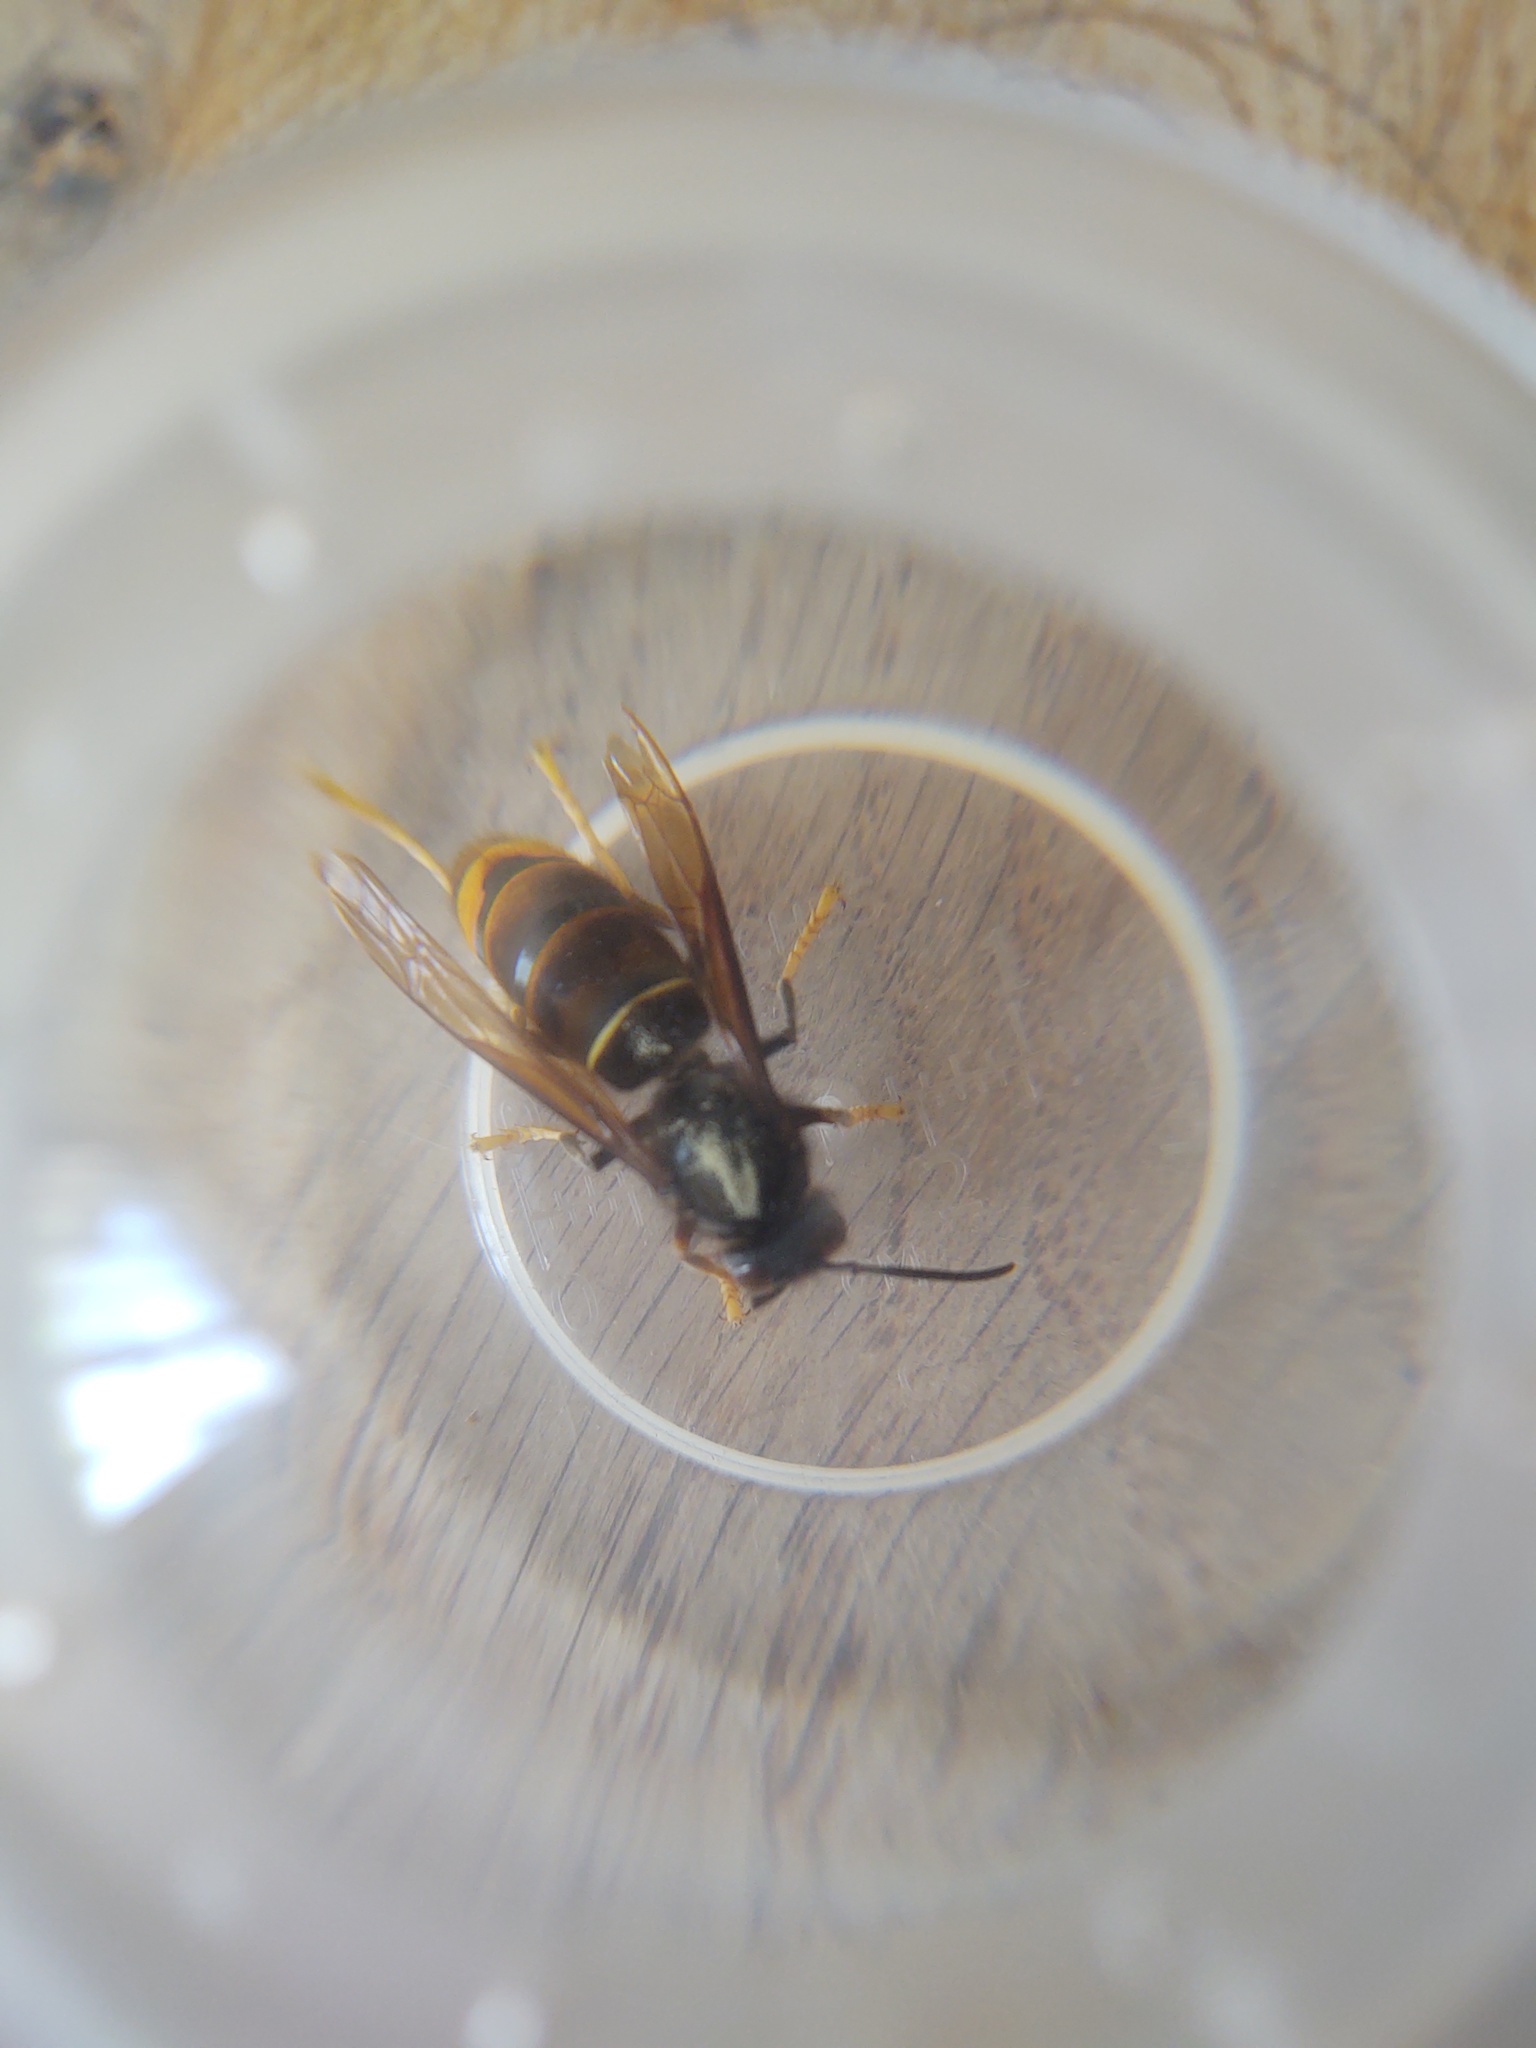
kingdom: Animalia
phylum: Arthropoda
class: Insecta
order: Hymenoptera
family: Vespidae
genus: Vespa
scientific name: Vespa velutina
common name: Asian hornet
